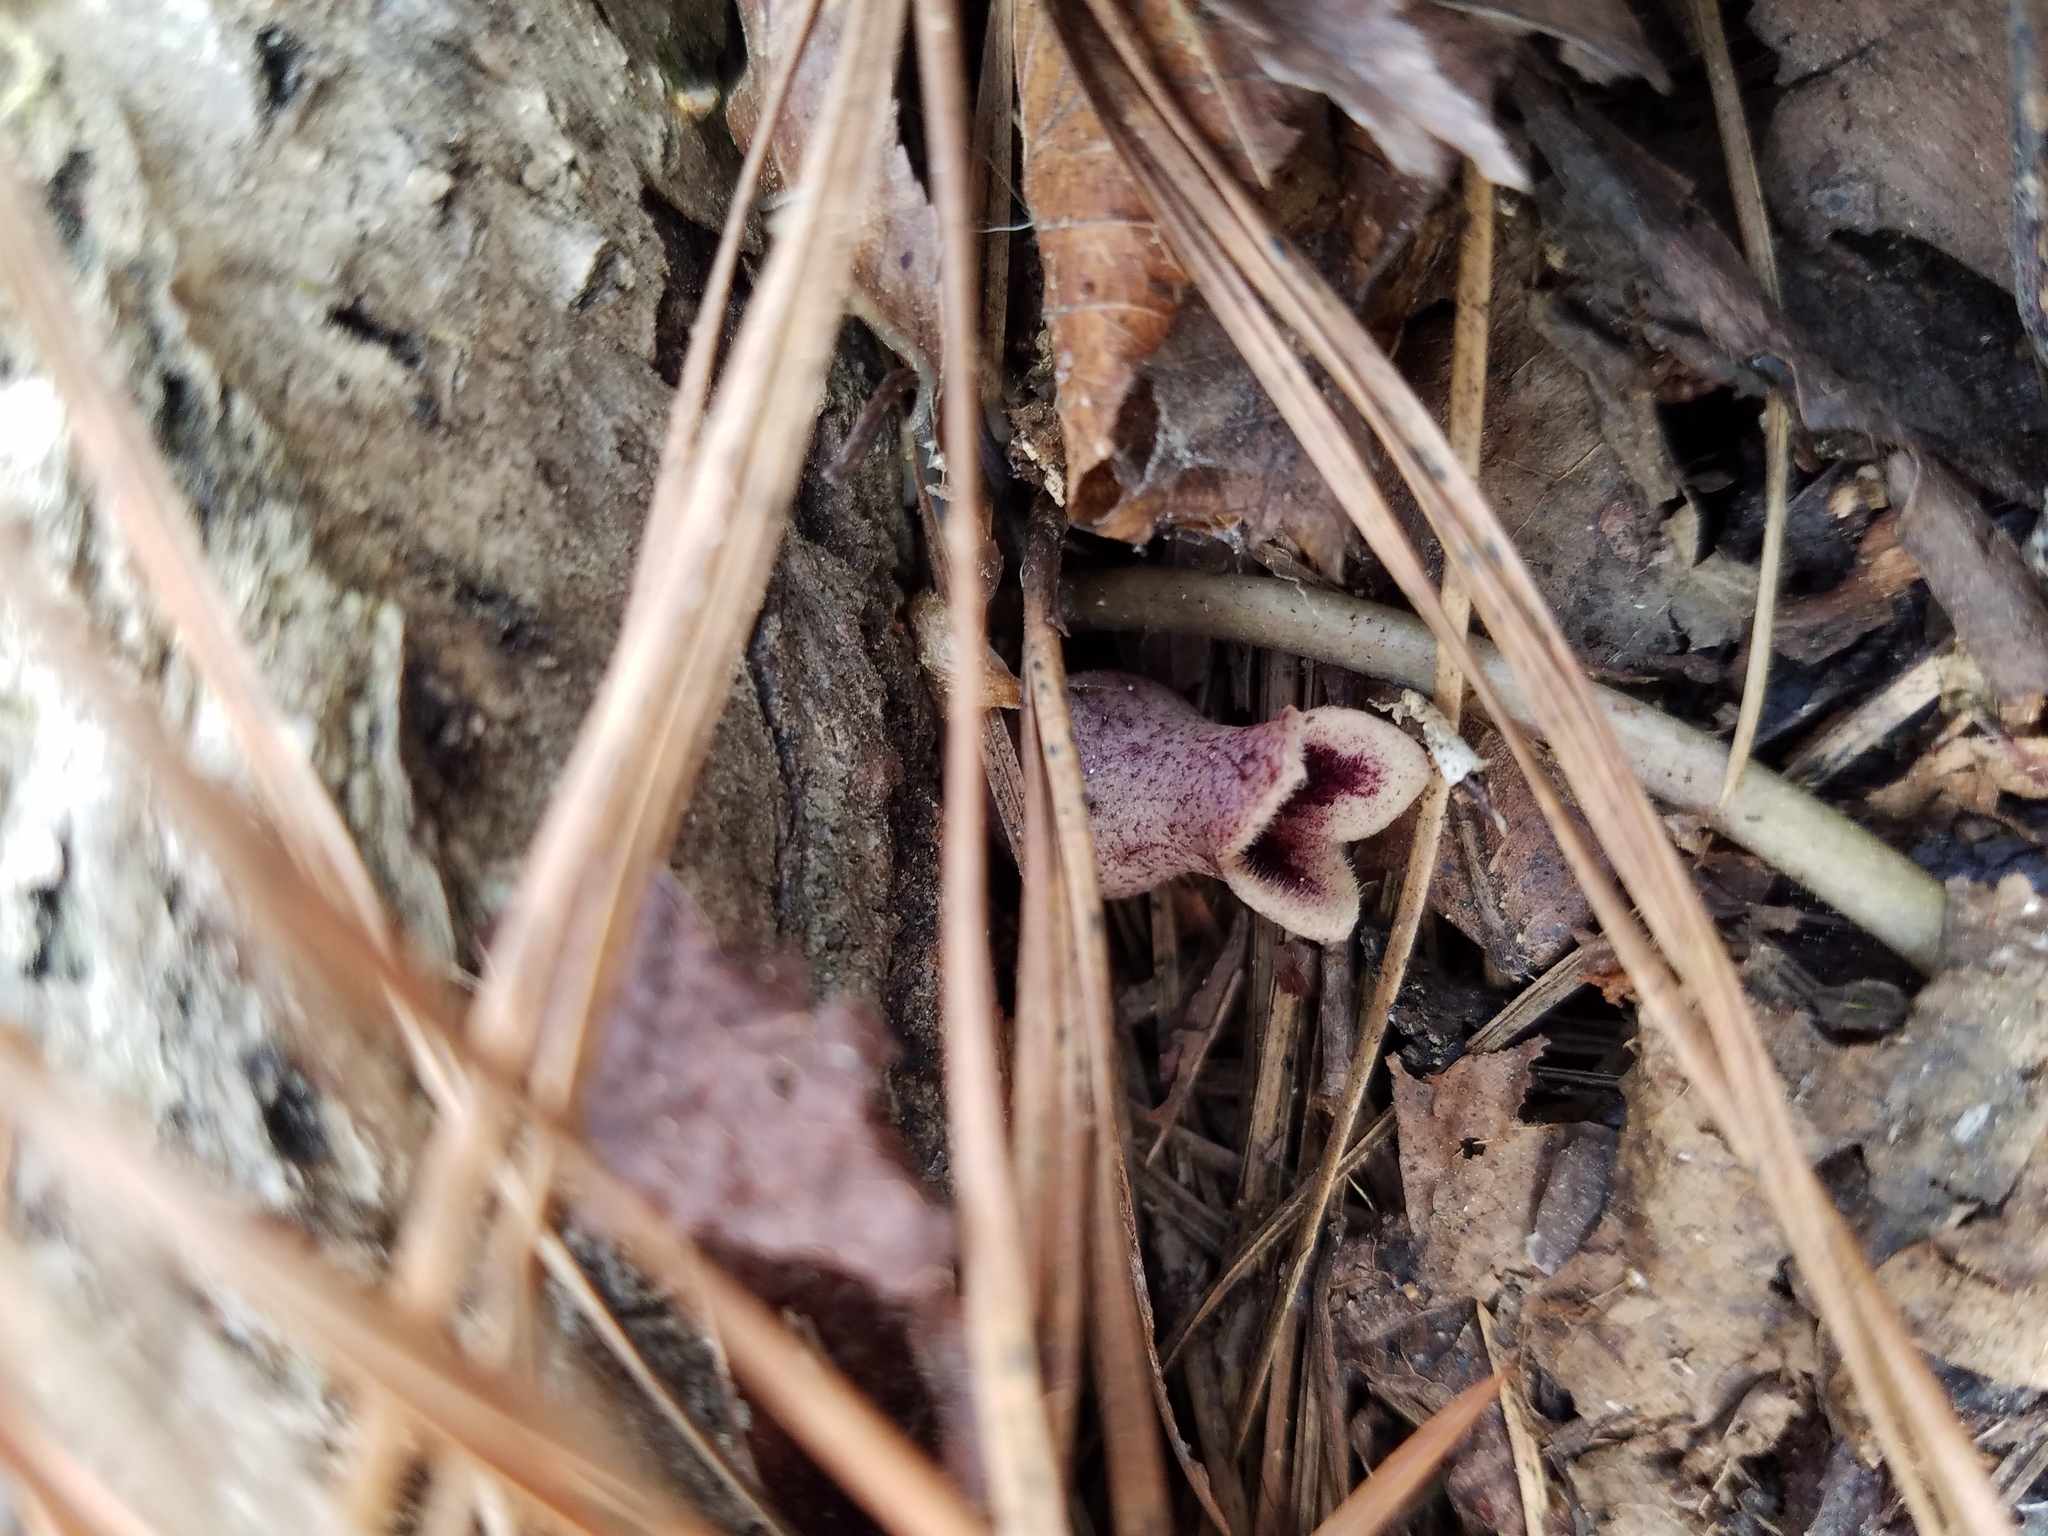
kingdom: Plantae
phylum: Tracheophyta
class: Magnoliopsida
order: Piperales
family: Aristolochiaceae
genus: Hexastylis
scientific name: Hexastylis arifolia
